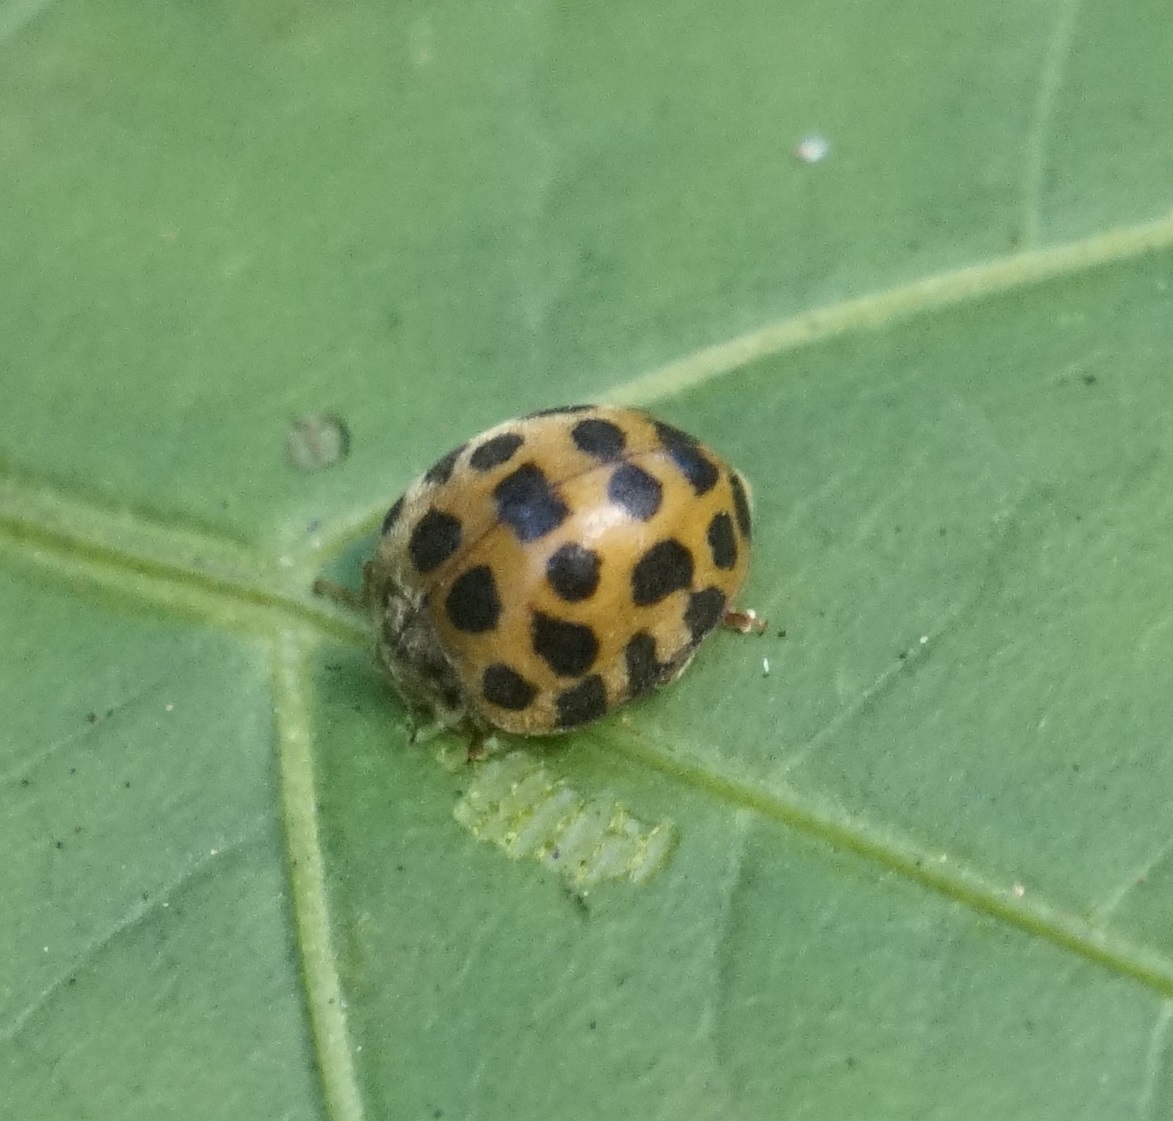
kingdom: Animalia
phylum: Arthropoda
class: Insecta
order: Coleoptera
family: Coccinellidae
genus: Henosepilachna
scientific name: Henosepilachna vigintioctopunctata
